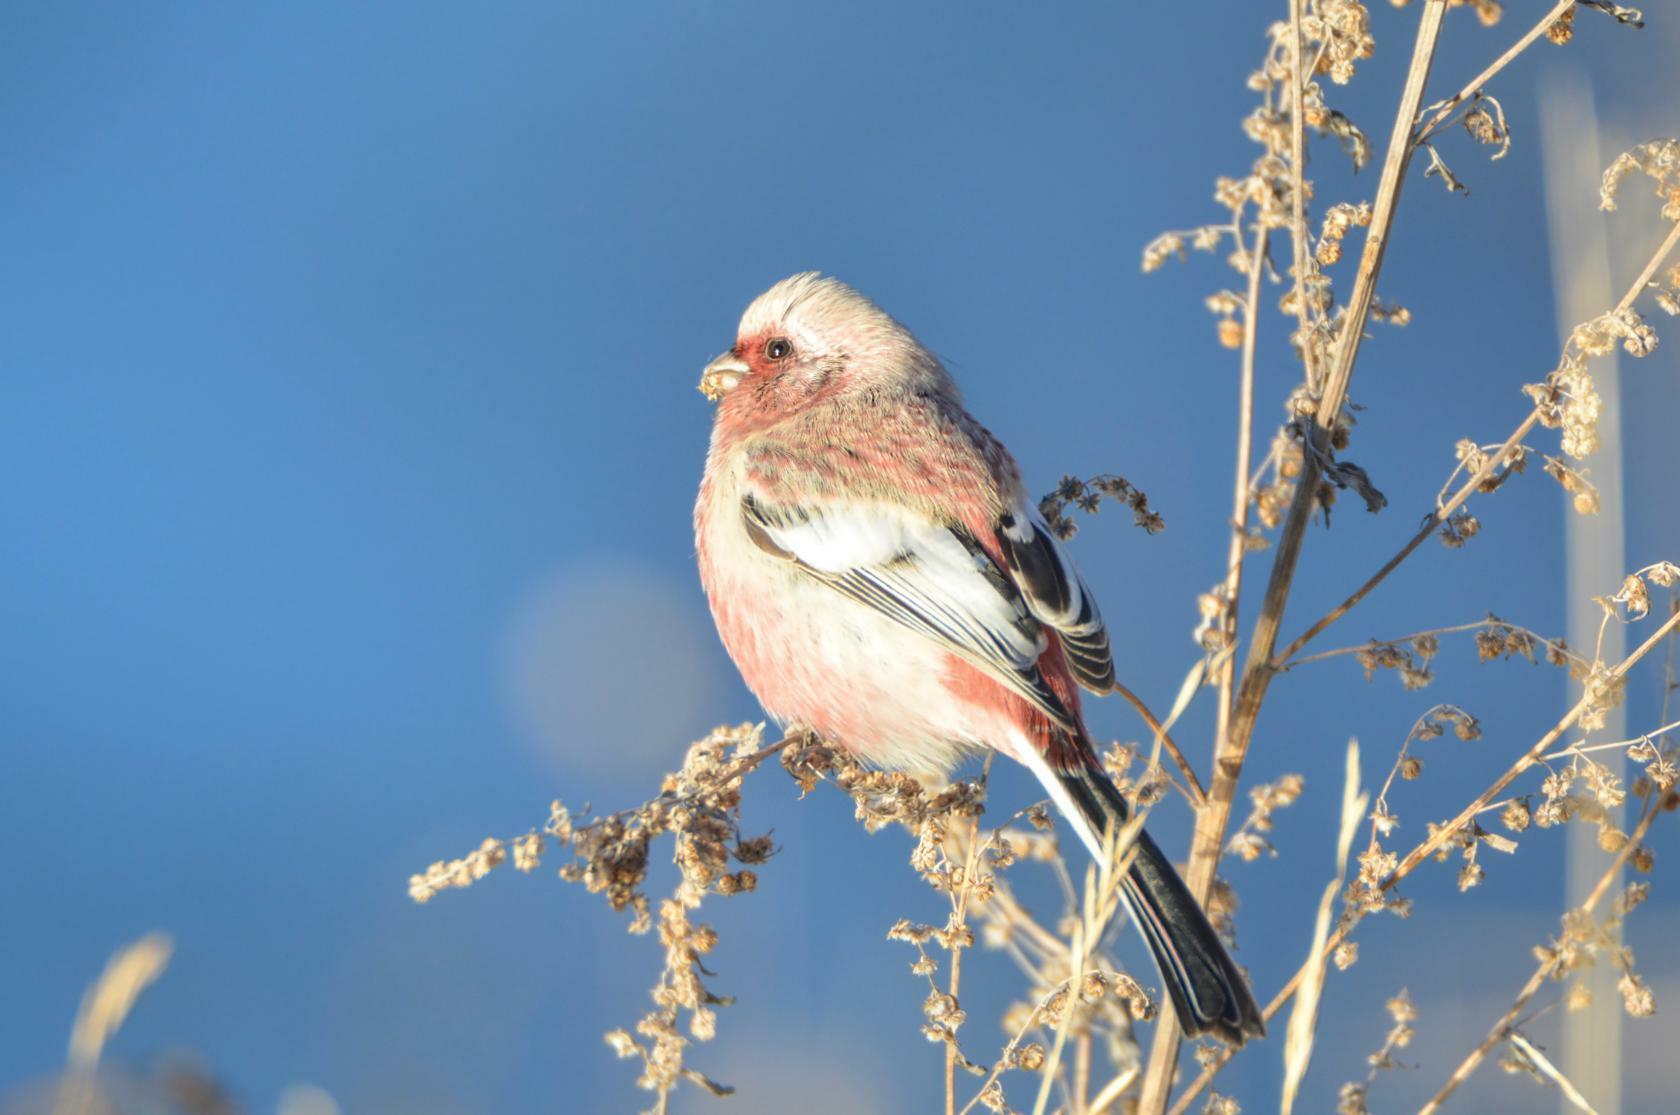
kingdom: Animalia
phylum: Chordata
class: Aves
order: Passeriformes
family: Fringillidae
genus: Carpodacus
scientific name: Carpodacus sibiricus
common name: Long-tailed rosefinch
